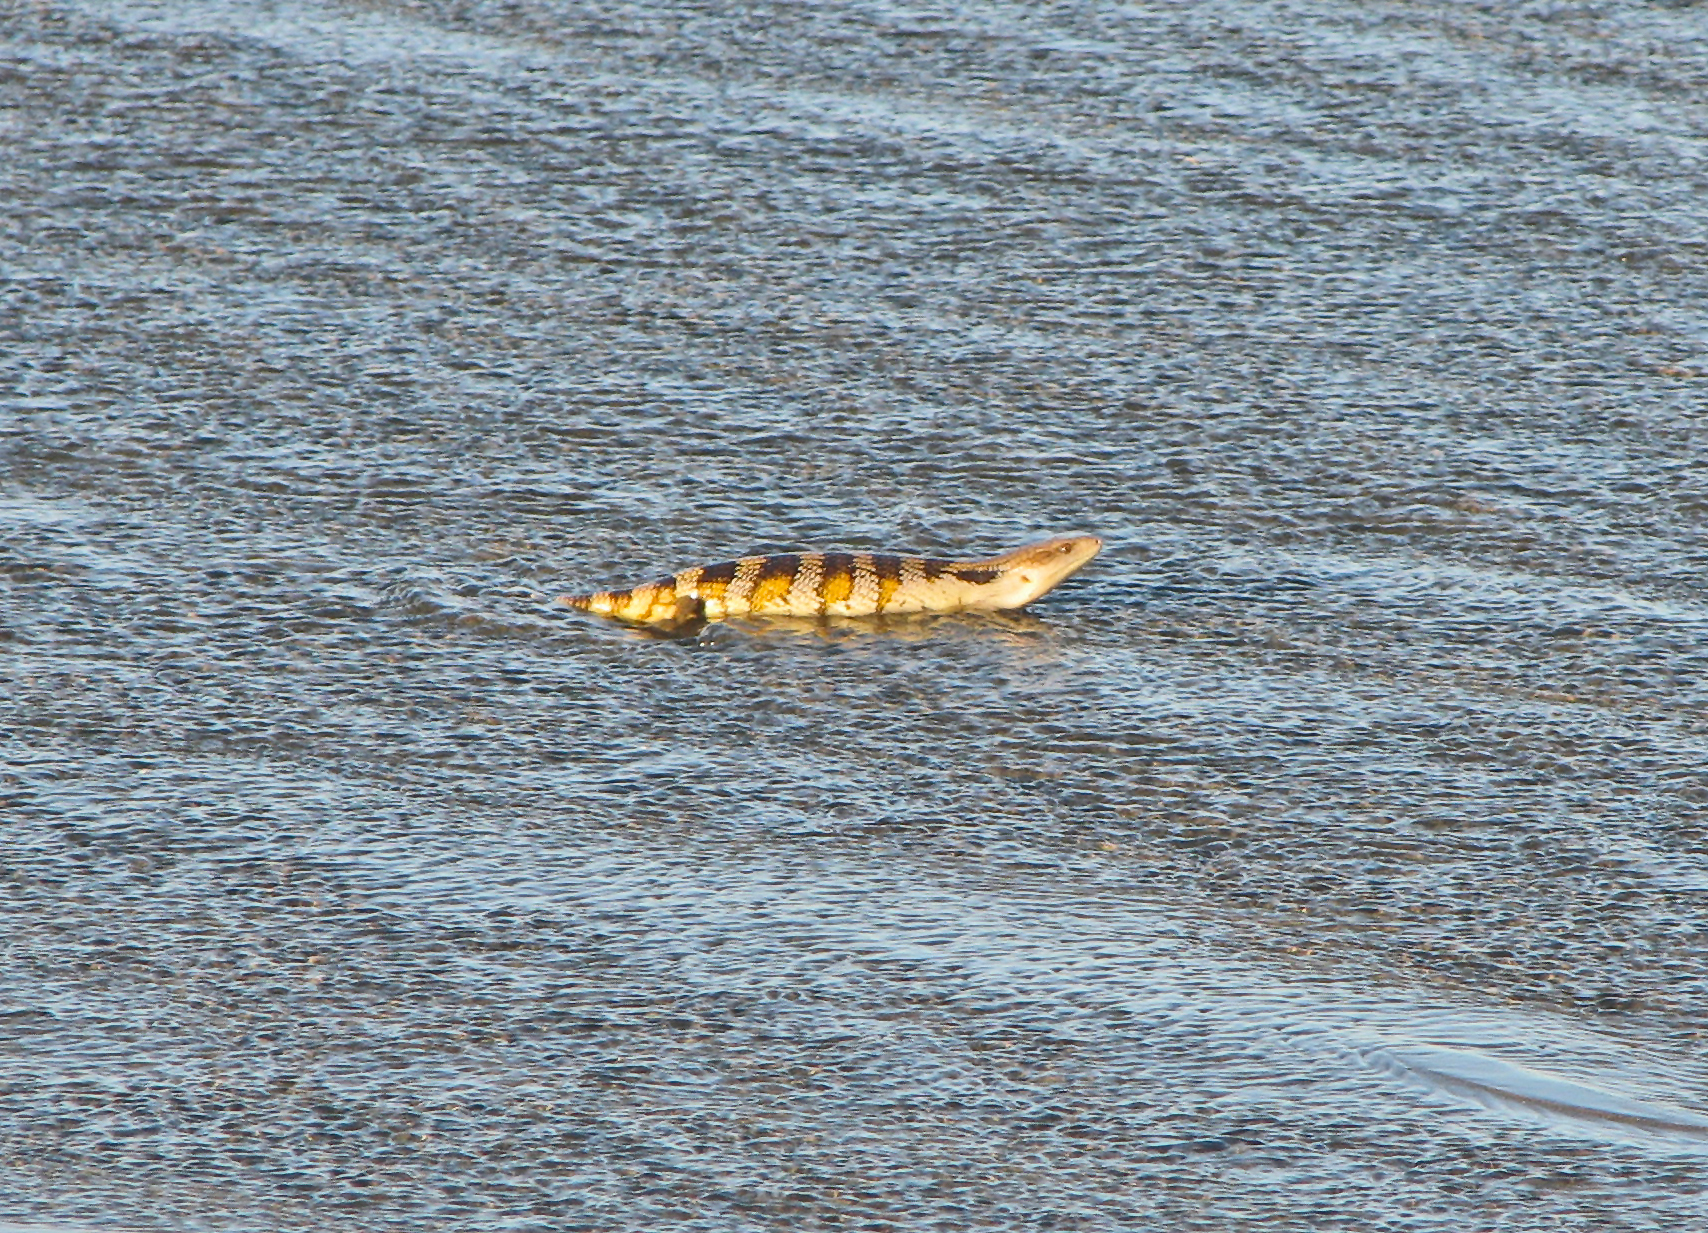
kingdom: Animalia
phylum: Chordata
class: Squamata
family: Scincidae
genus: Tiliqua
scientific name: Tiliqua scincoides
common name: Common bluetongue
